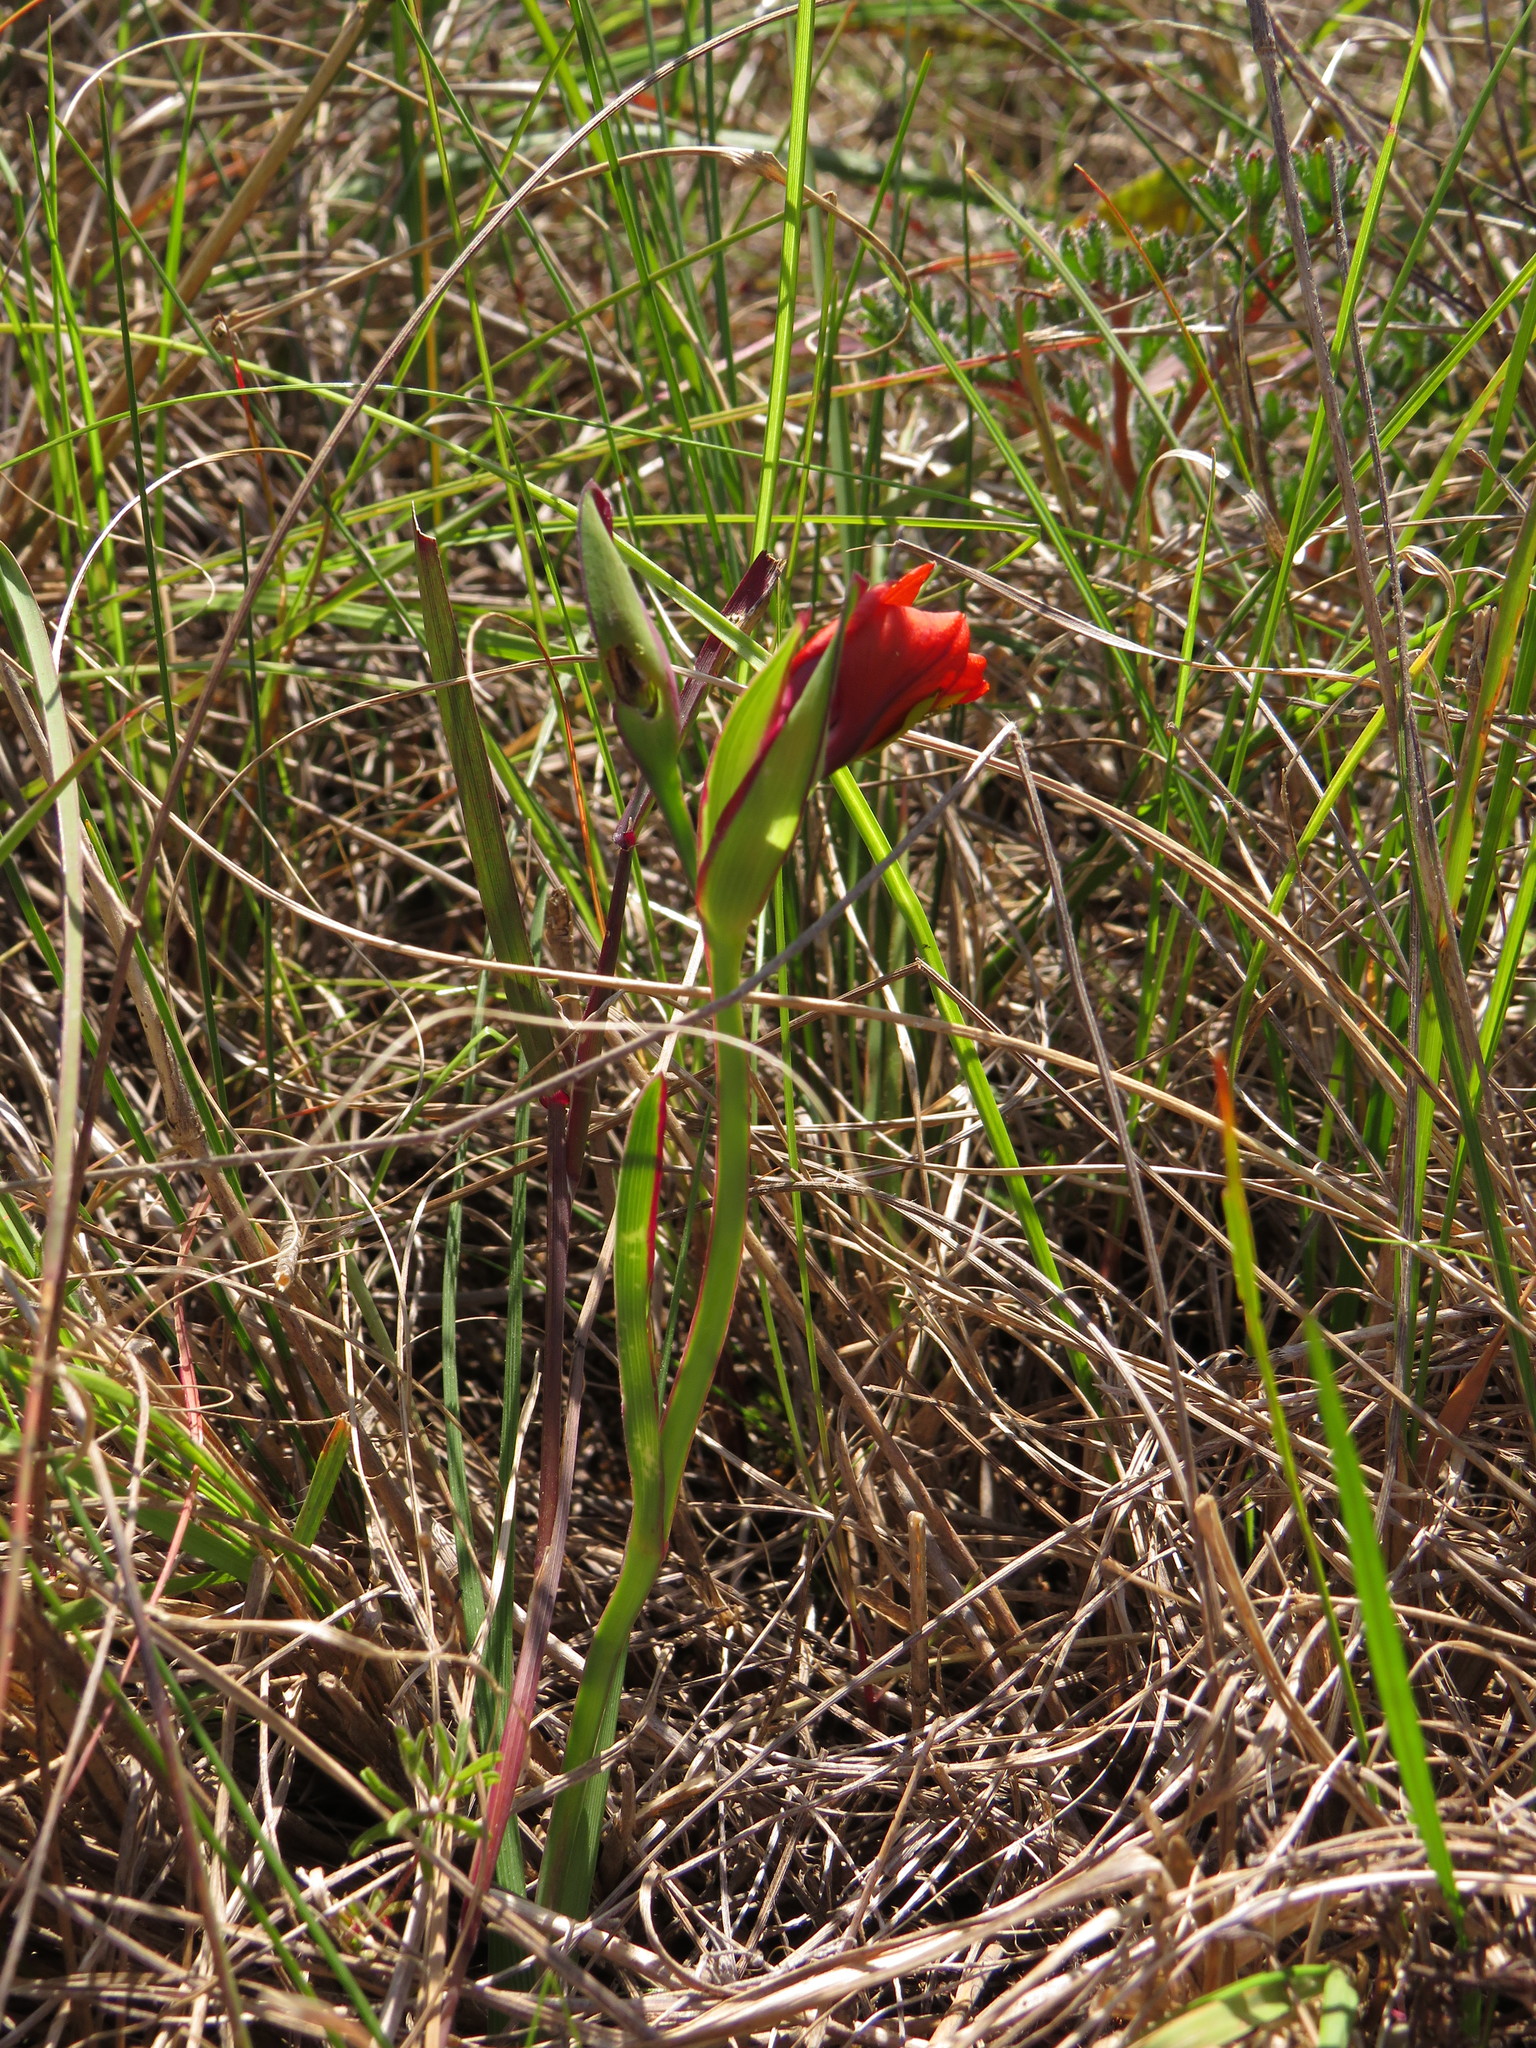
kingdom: Plantae
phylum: Tracheophyta
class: Liliopsida
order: Asparagales
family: Iridaceae
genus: Gladiolus
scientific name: Gladiolus alatus
